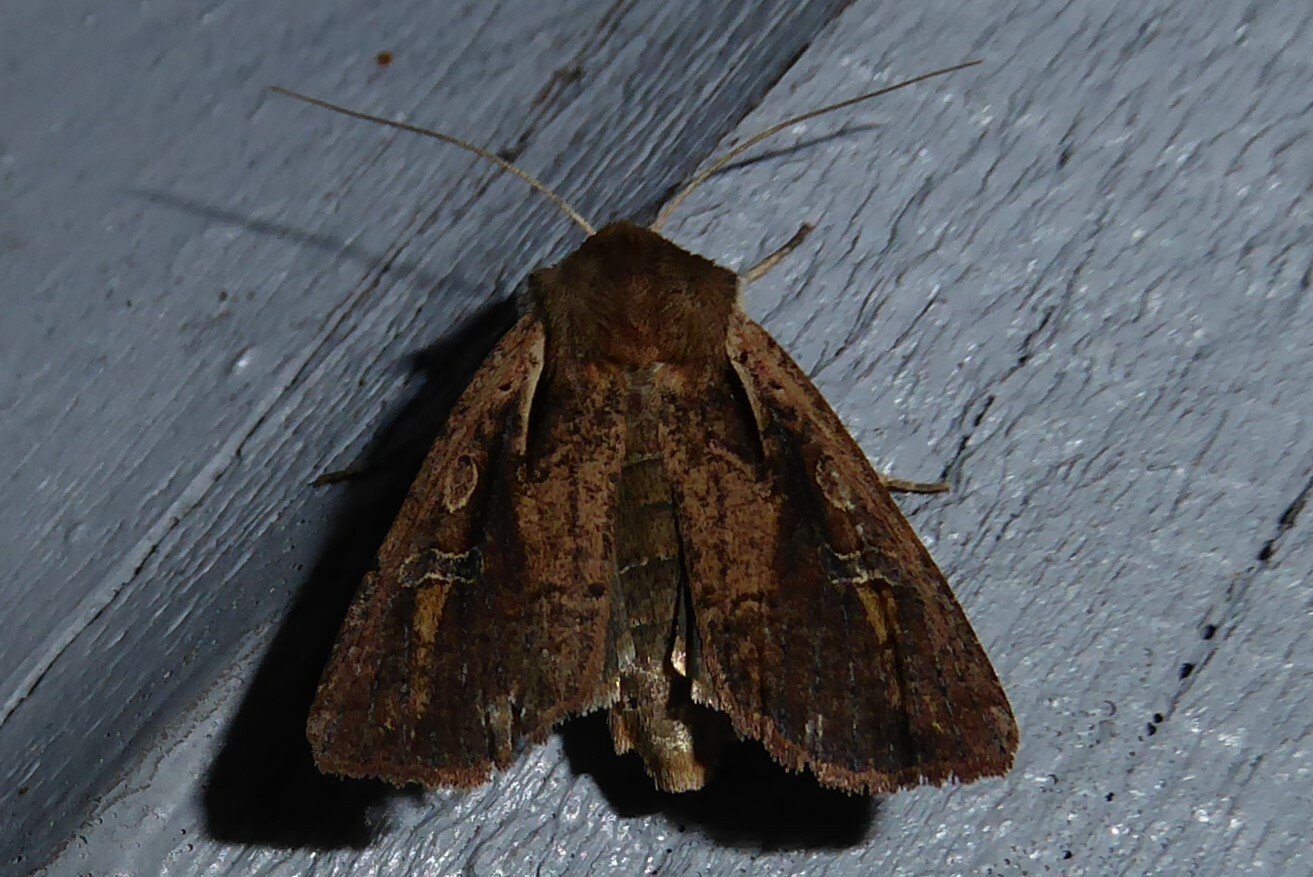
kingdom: Animalia
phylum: Arthropoda
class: Insecta
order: Lepidoptera
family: Noctuidae
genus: Ichneutica
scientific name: Ichneutica atristriga
